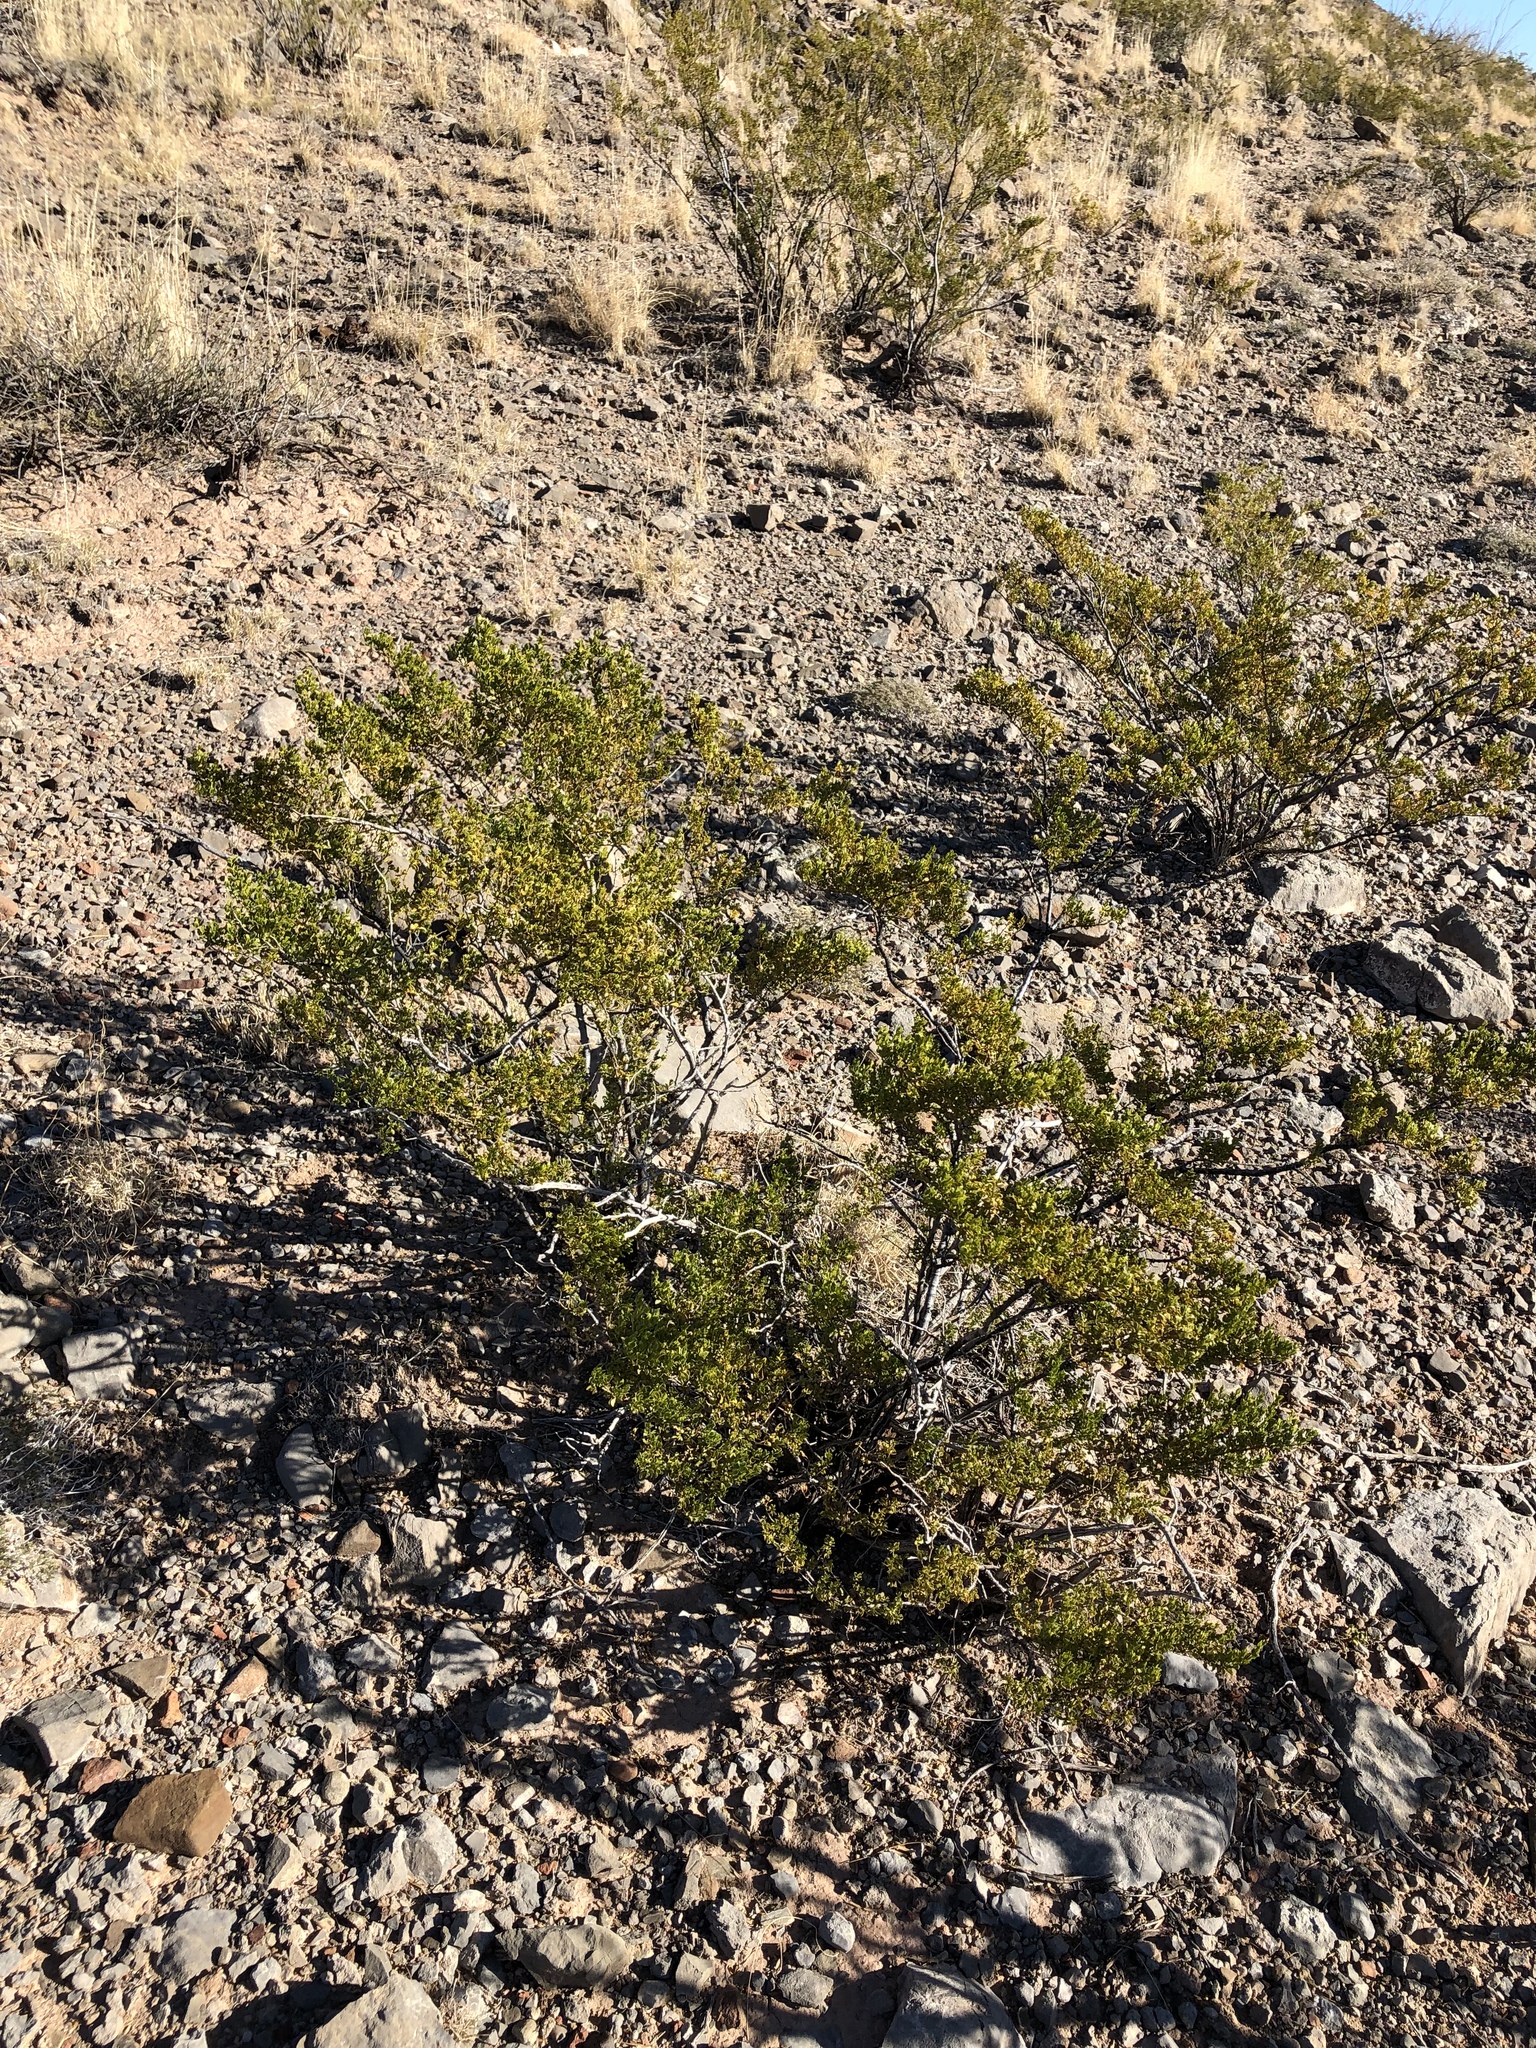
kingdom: Plantae
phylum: Tracheophyta
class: Magnoliopsida
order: Zygophyllales
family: Zygophyllaceae
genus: Larrea
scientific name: Larrea tridentata
